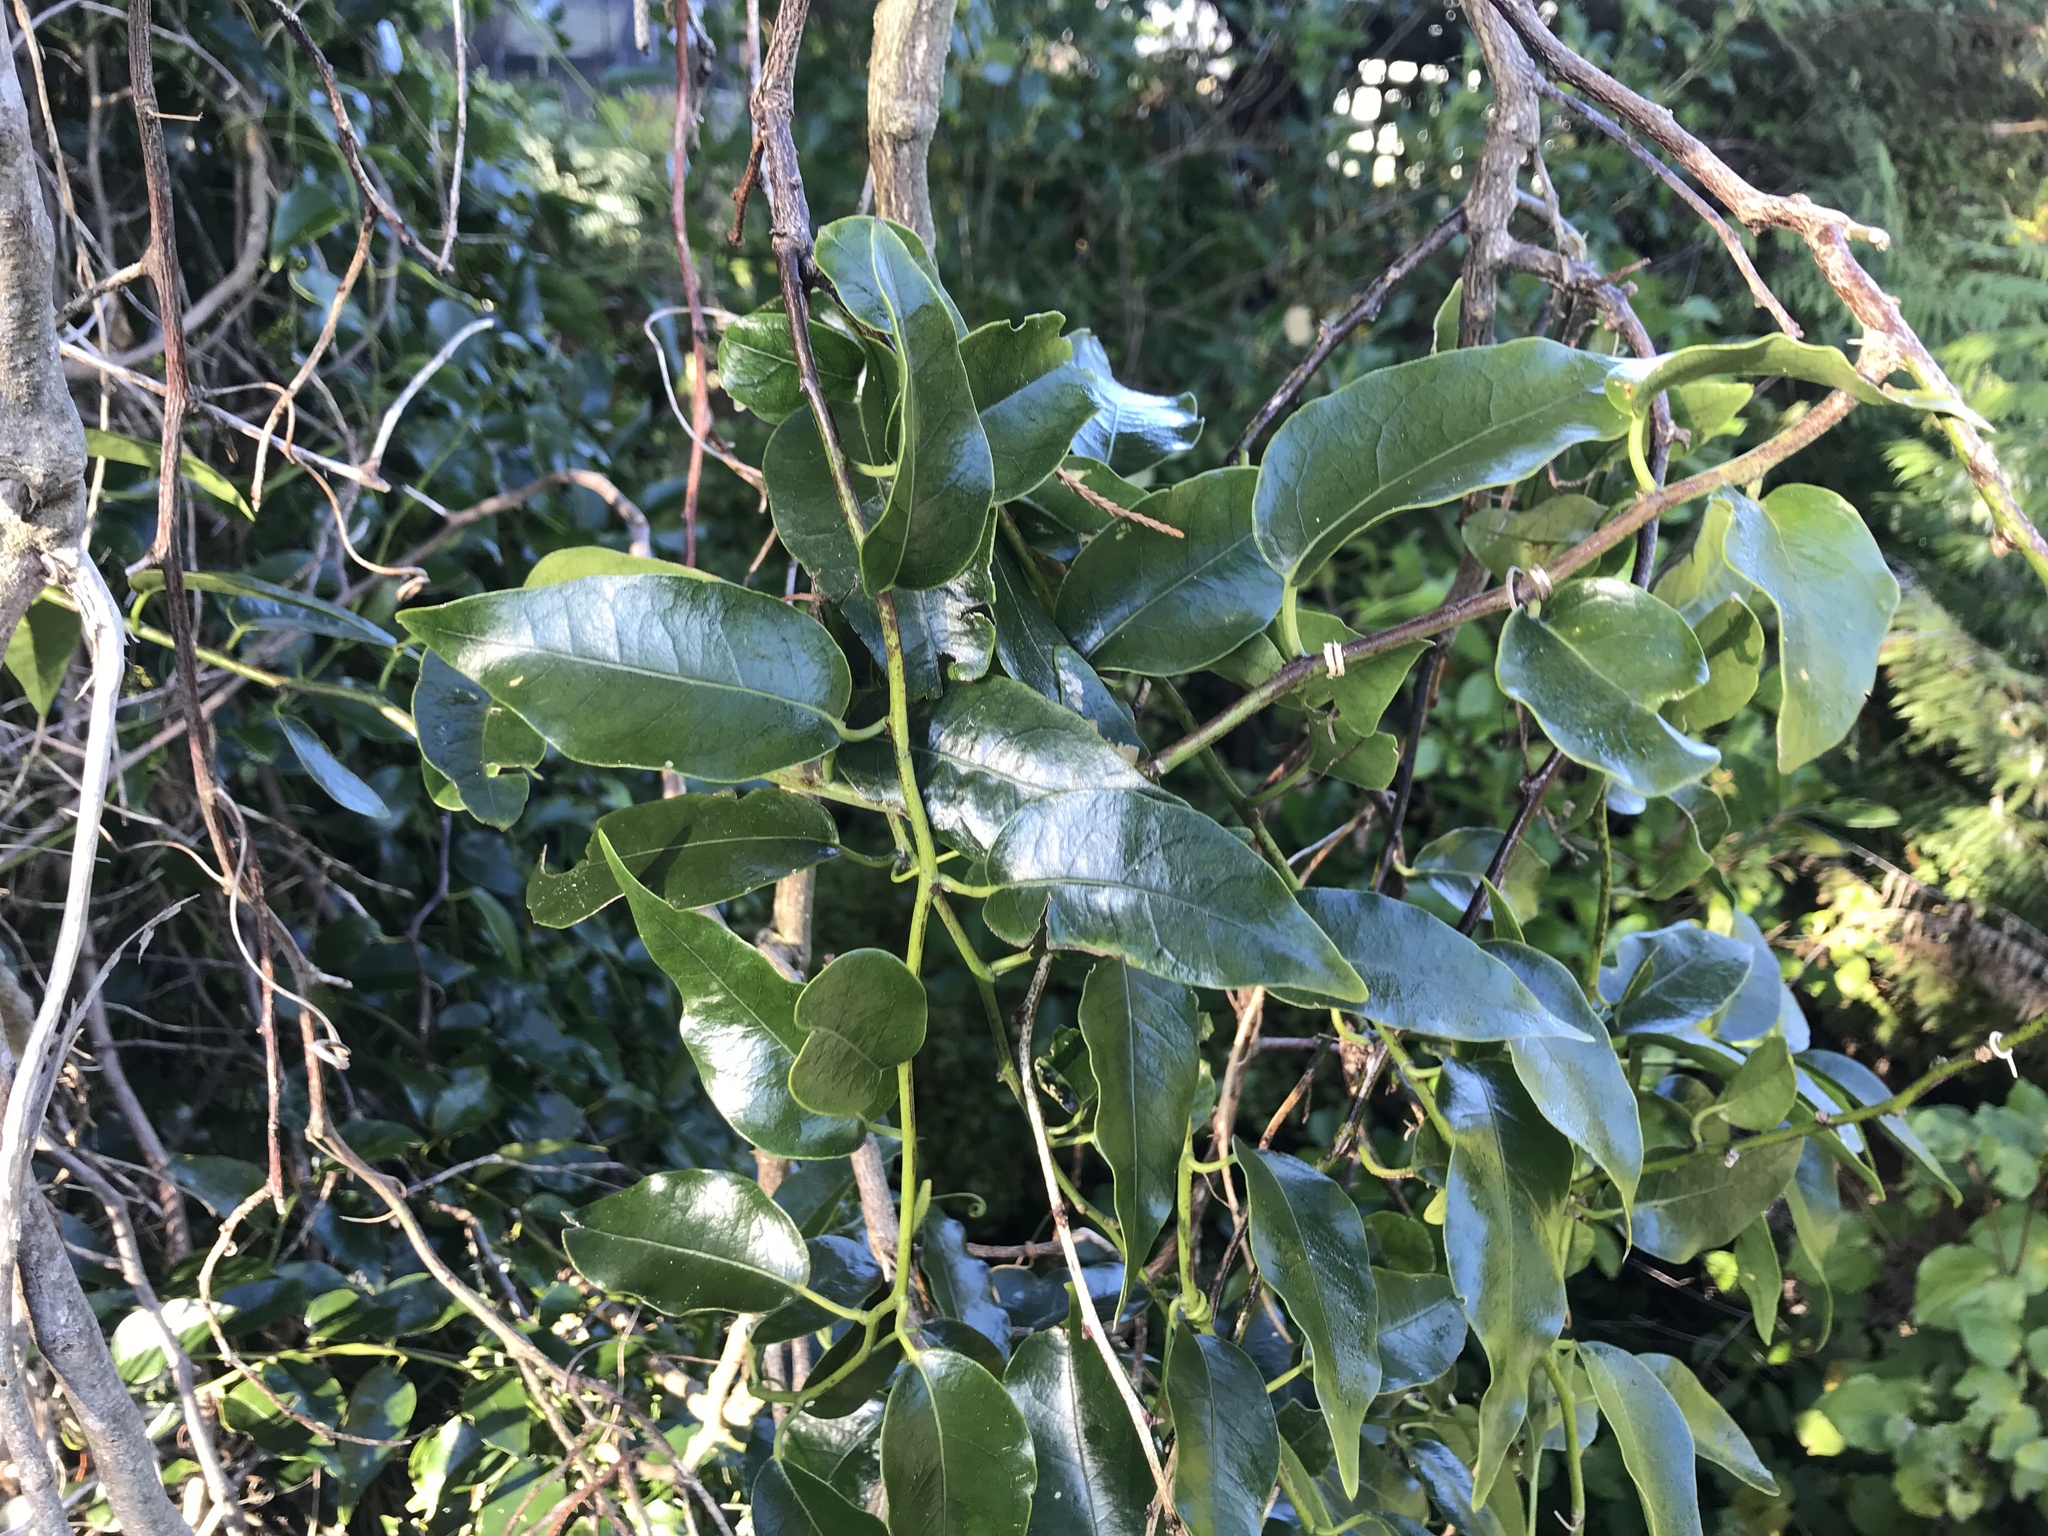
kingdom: Plantae
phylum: Tracheophyta
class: Magnoliopsida
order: Malpighiales
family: Passifloraceae
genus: Passiflora
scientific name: Passiflora tetrandra
